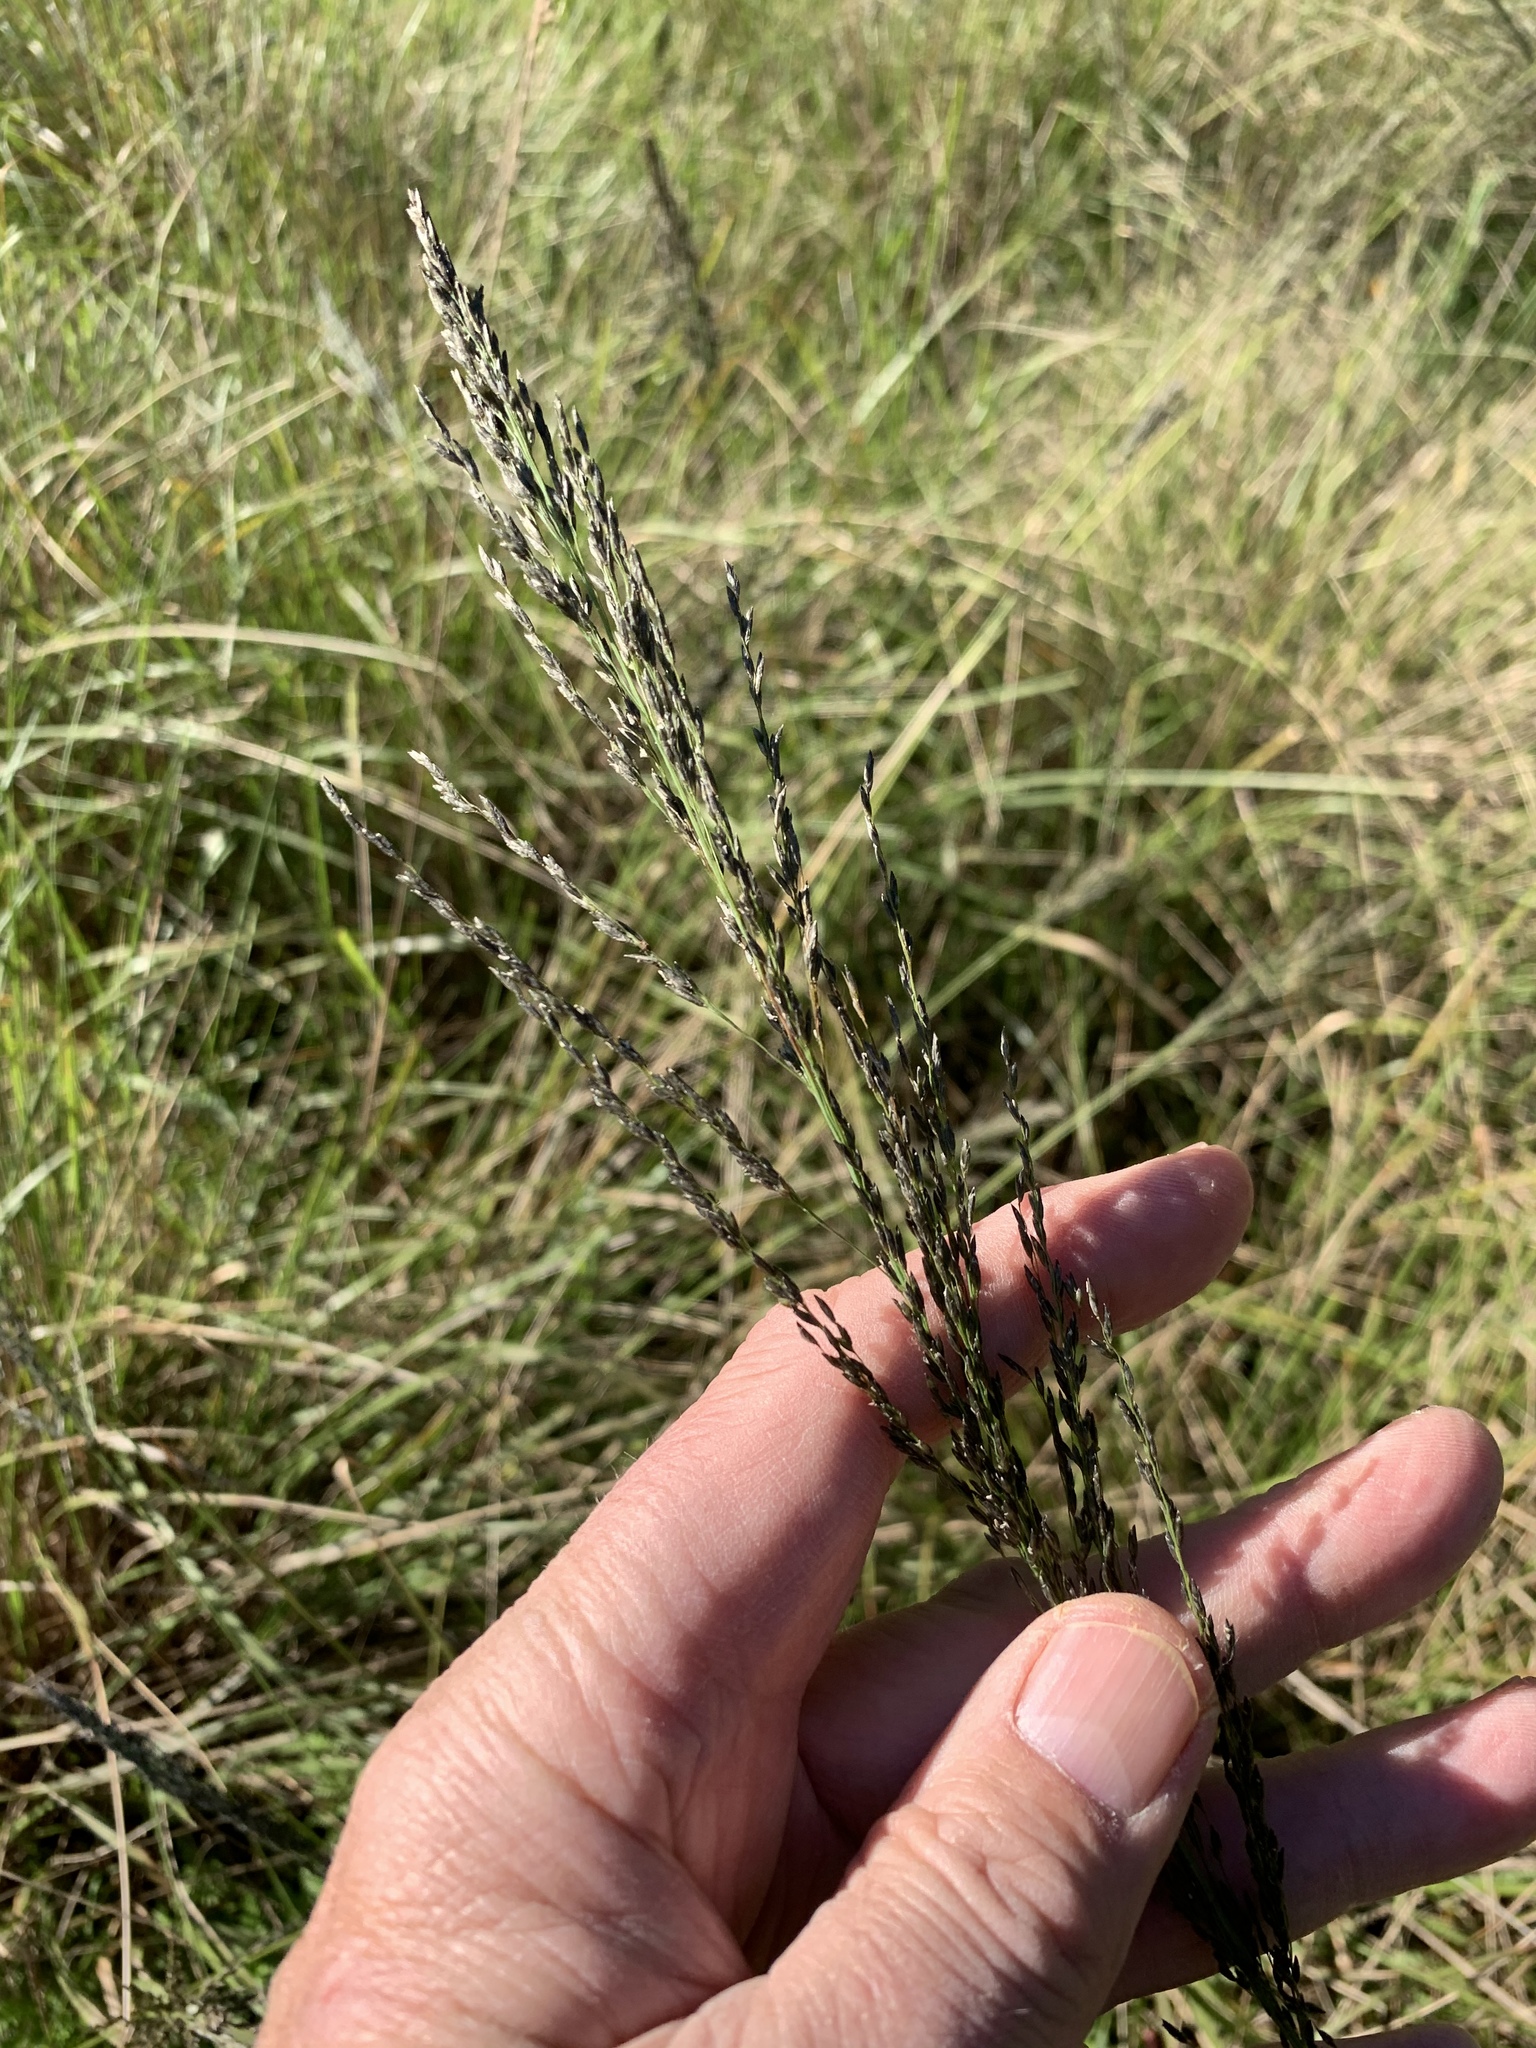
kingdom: Plantae
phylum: Tracheophyta
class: Liliopsida
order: Poales
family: Poaceae
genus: Eragrostis
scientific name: Eragrostis curvula
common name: African love-grass
